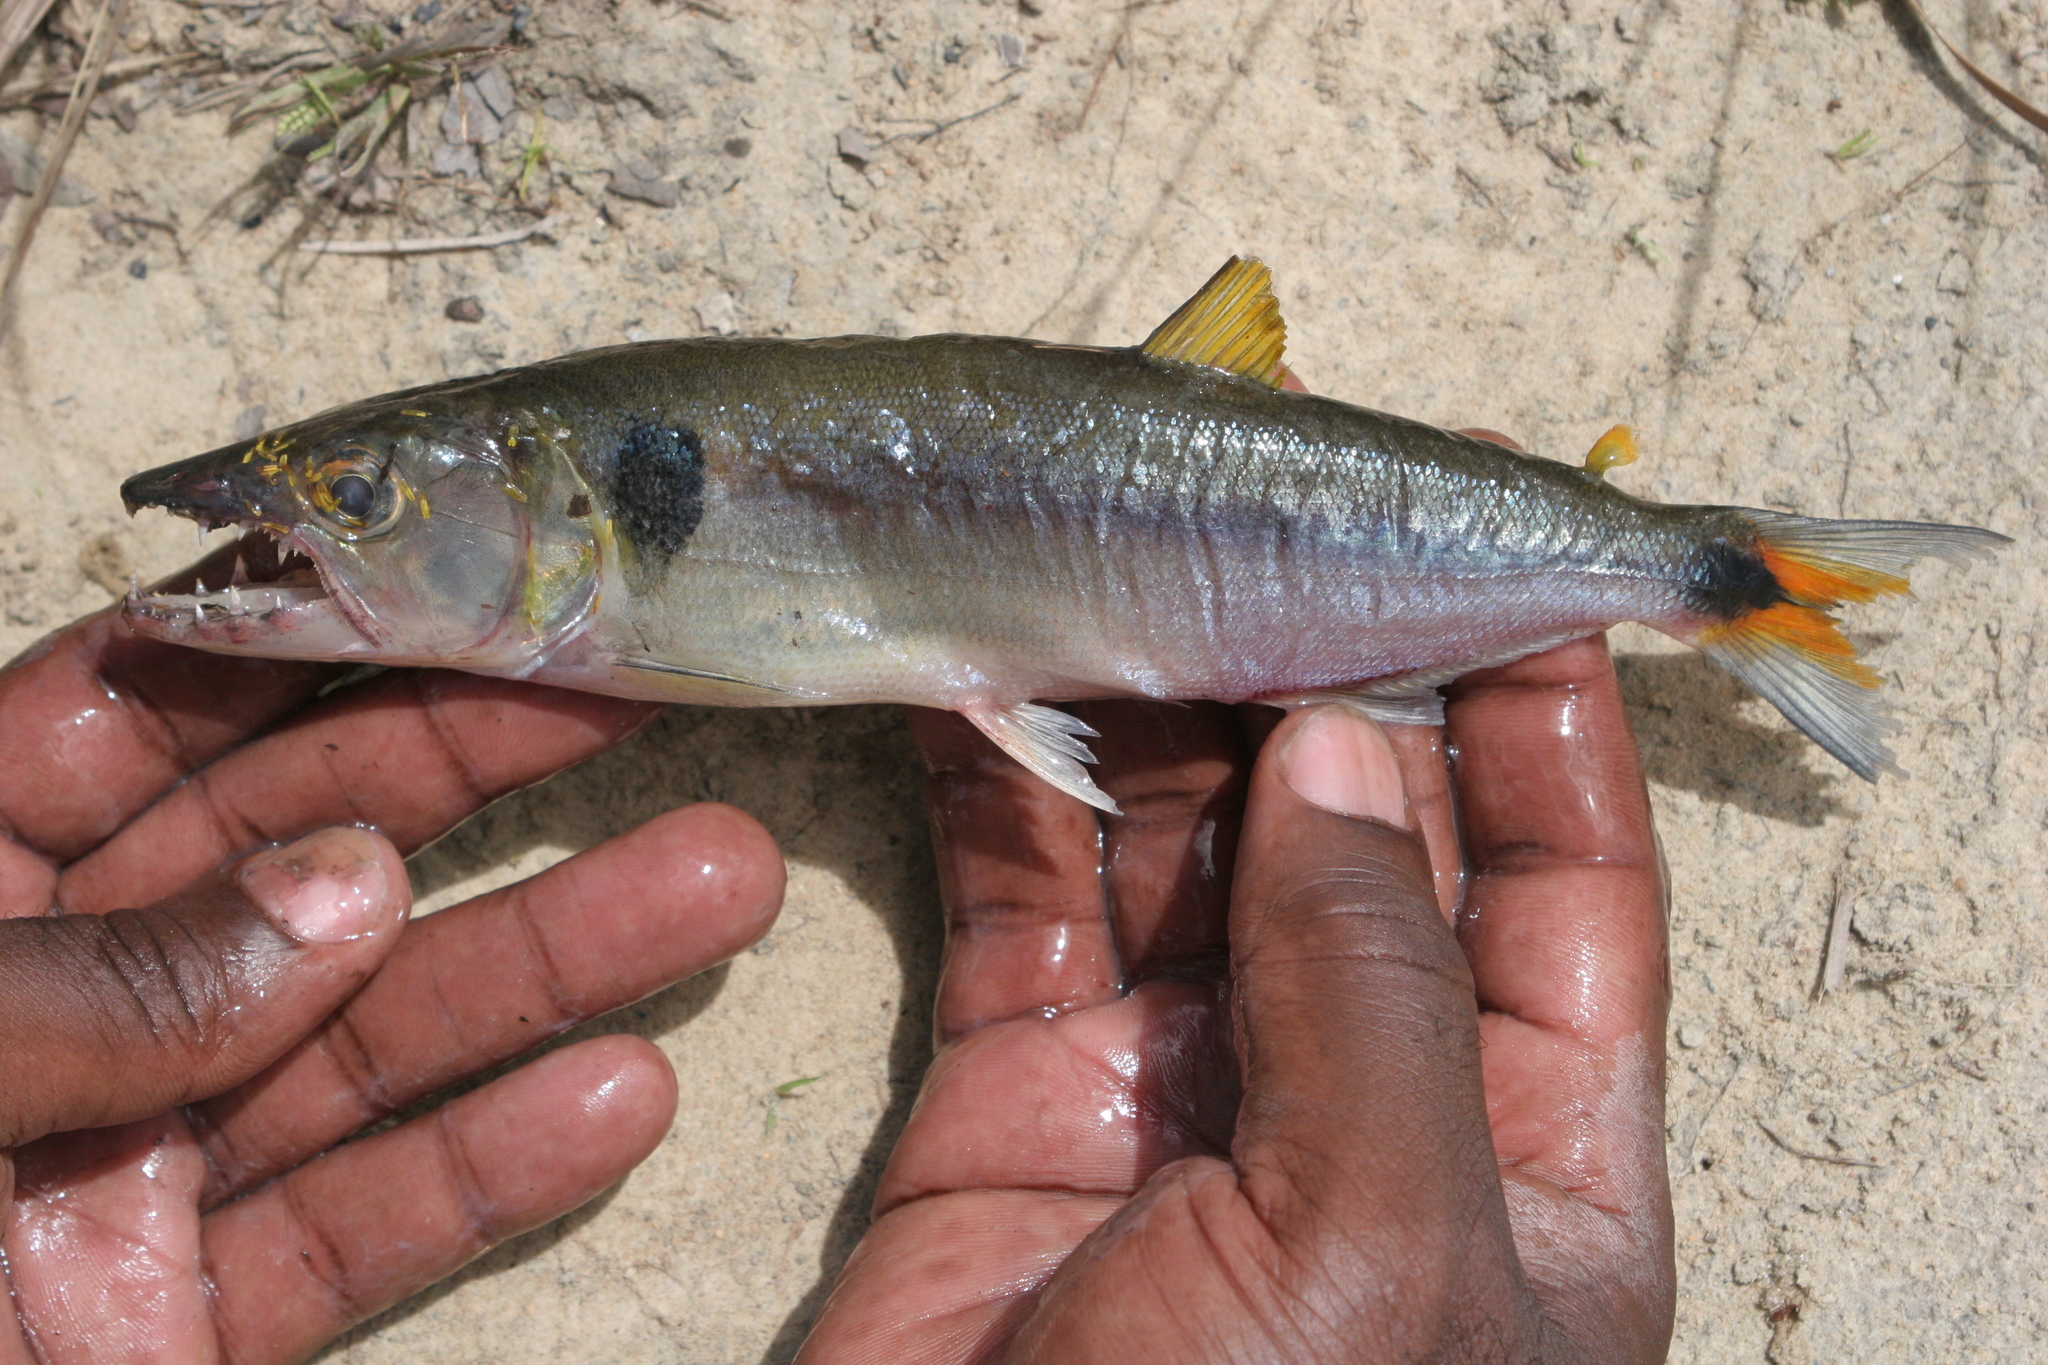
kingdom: Animalia
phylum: Chordata
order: Characiformes
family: Acestrorhynchidae
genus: Acestrorhynchus
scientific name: Acestrorhynchus falcatus
